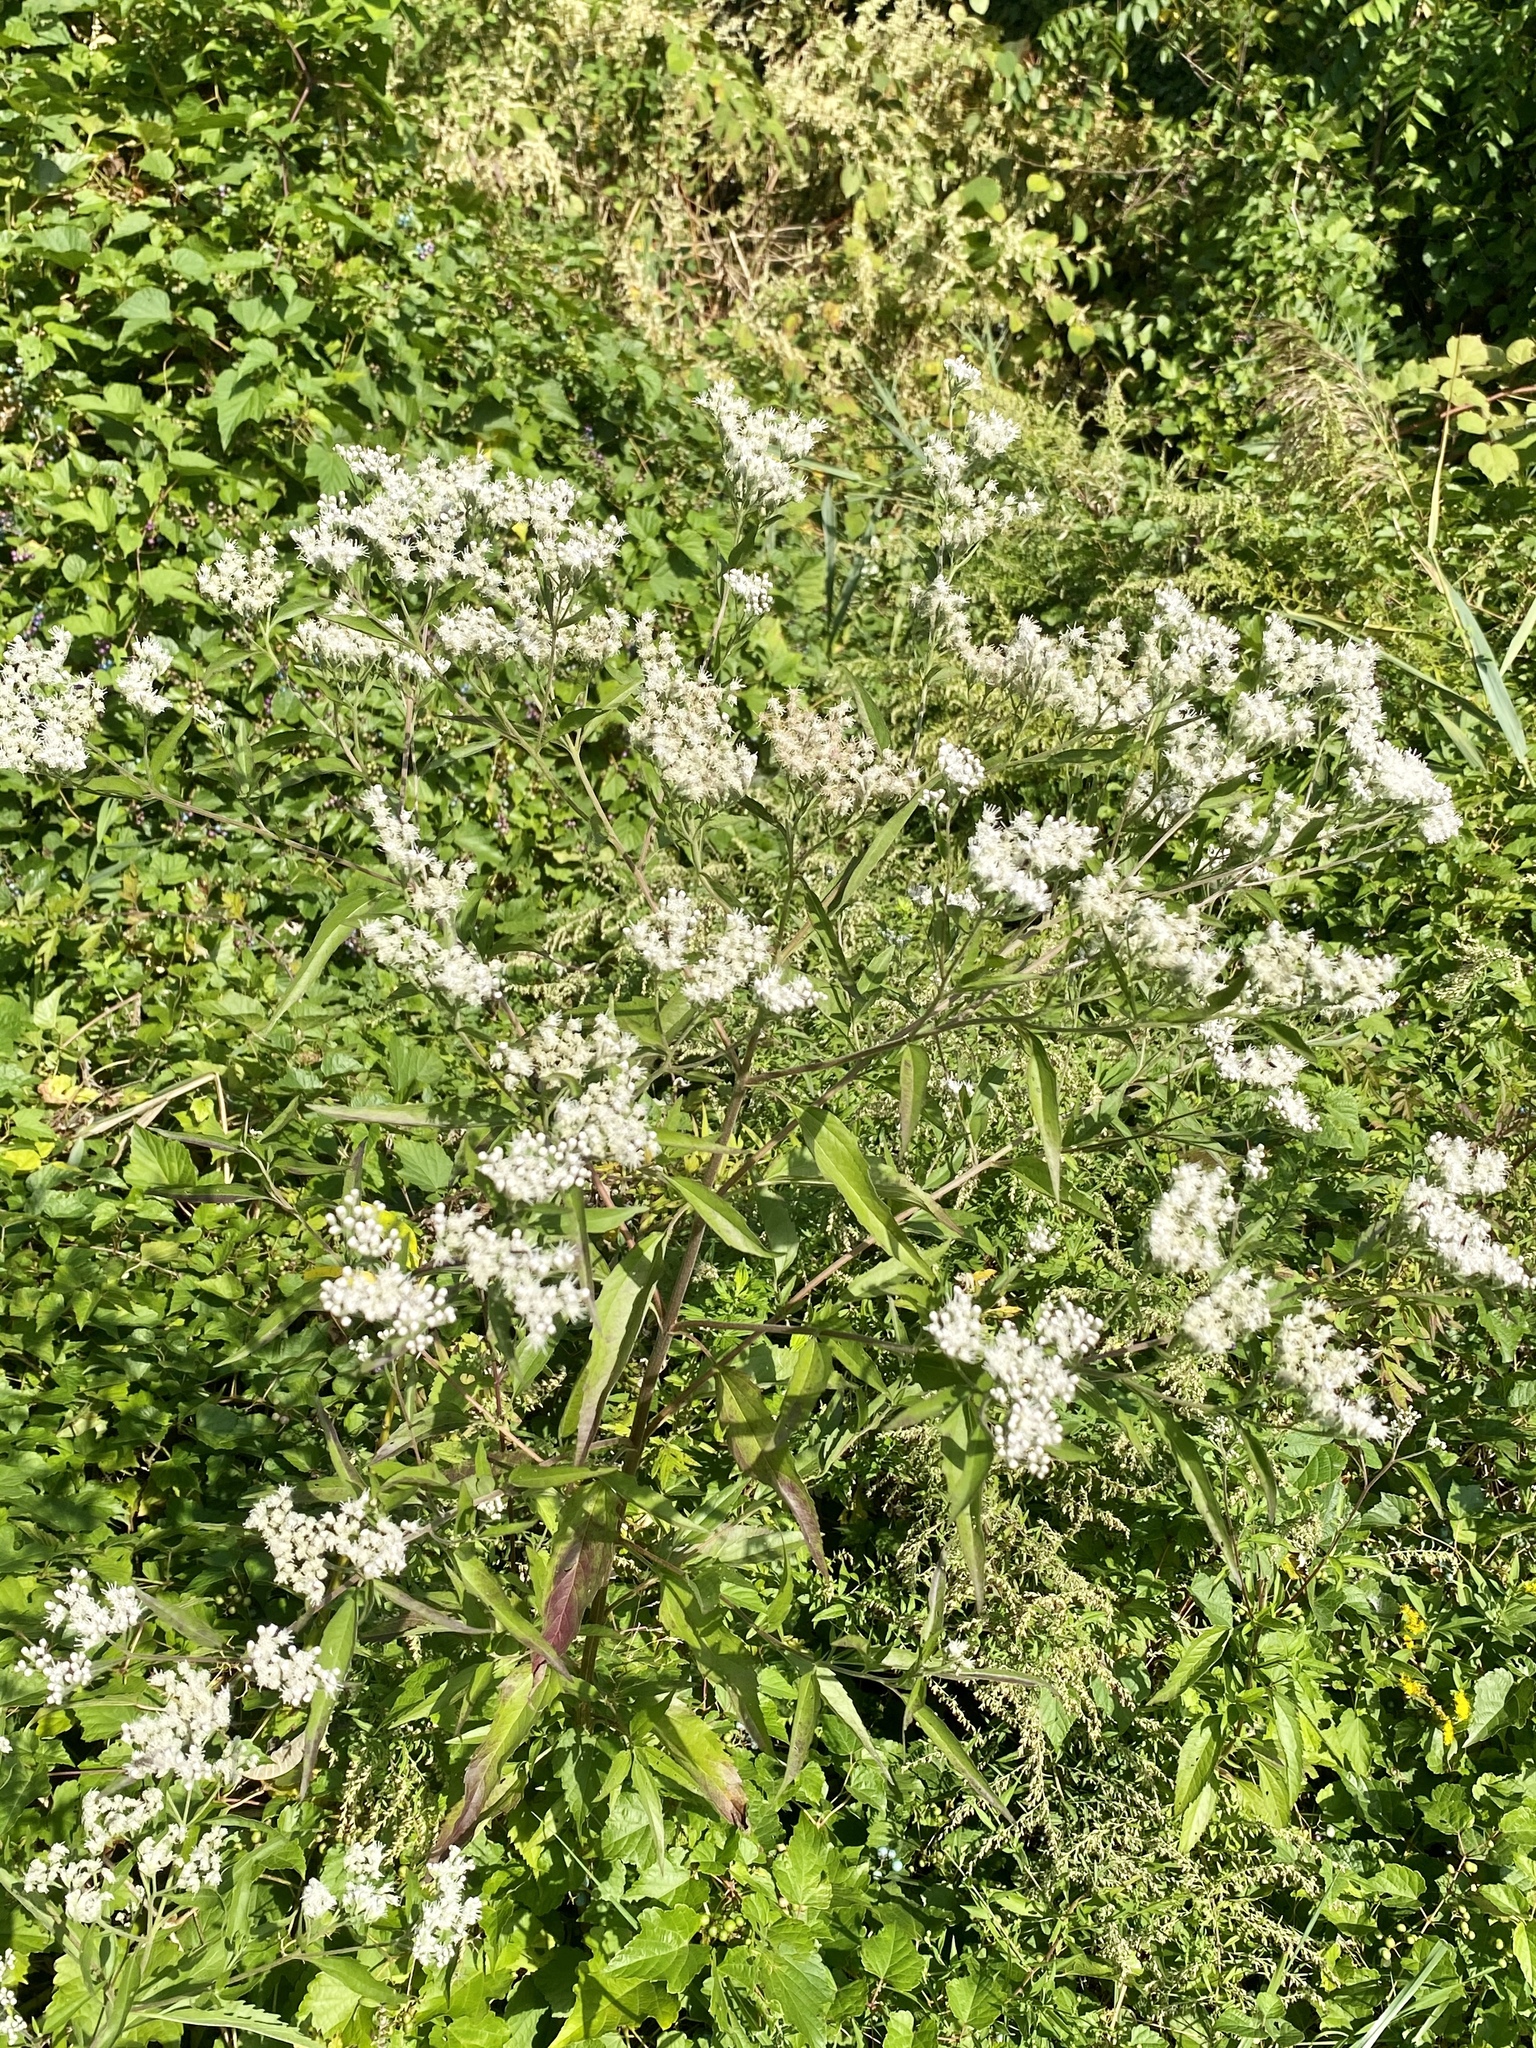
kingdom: Plantae
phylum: Tracheophyta
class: Magnoliopsida
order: Asterales
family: Asteraceae
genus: Eupatorium
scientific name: Eupatorium serotinum
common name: Late boneset
